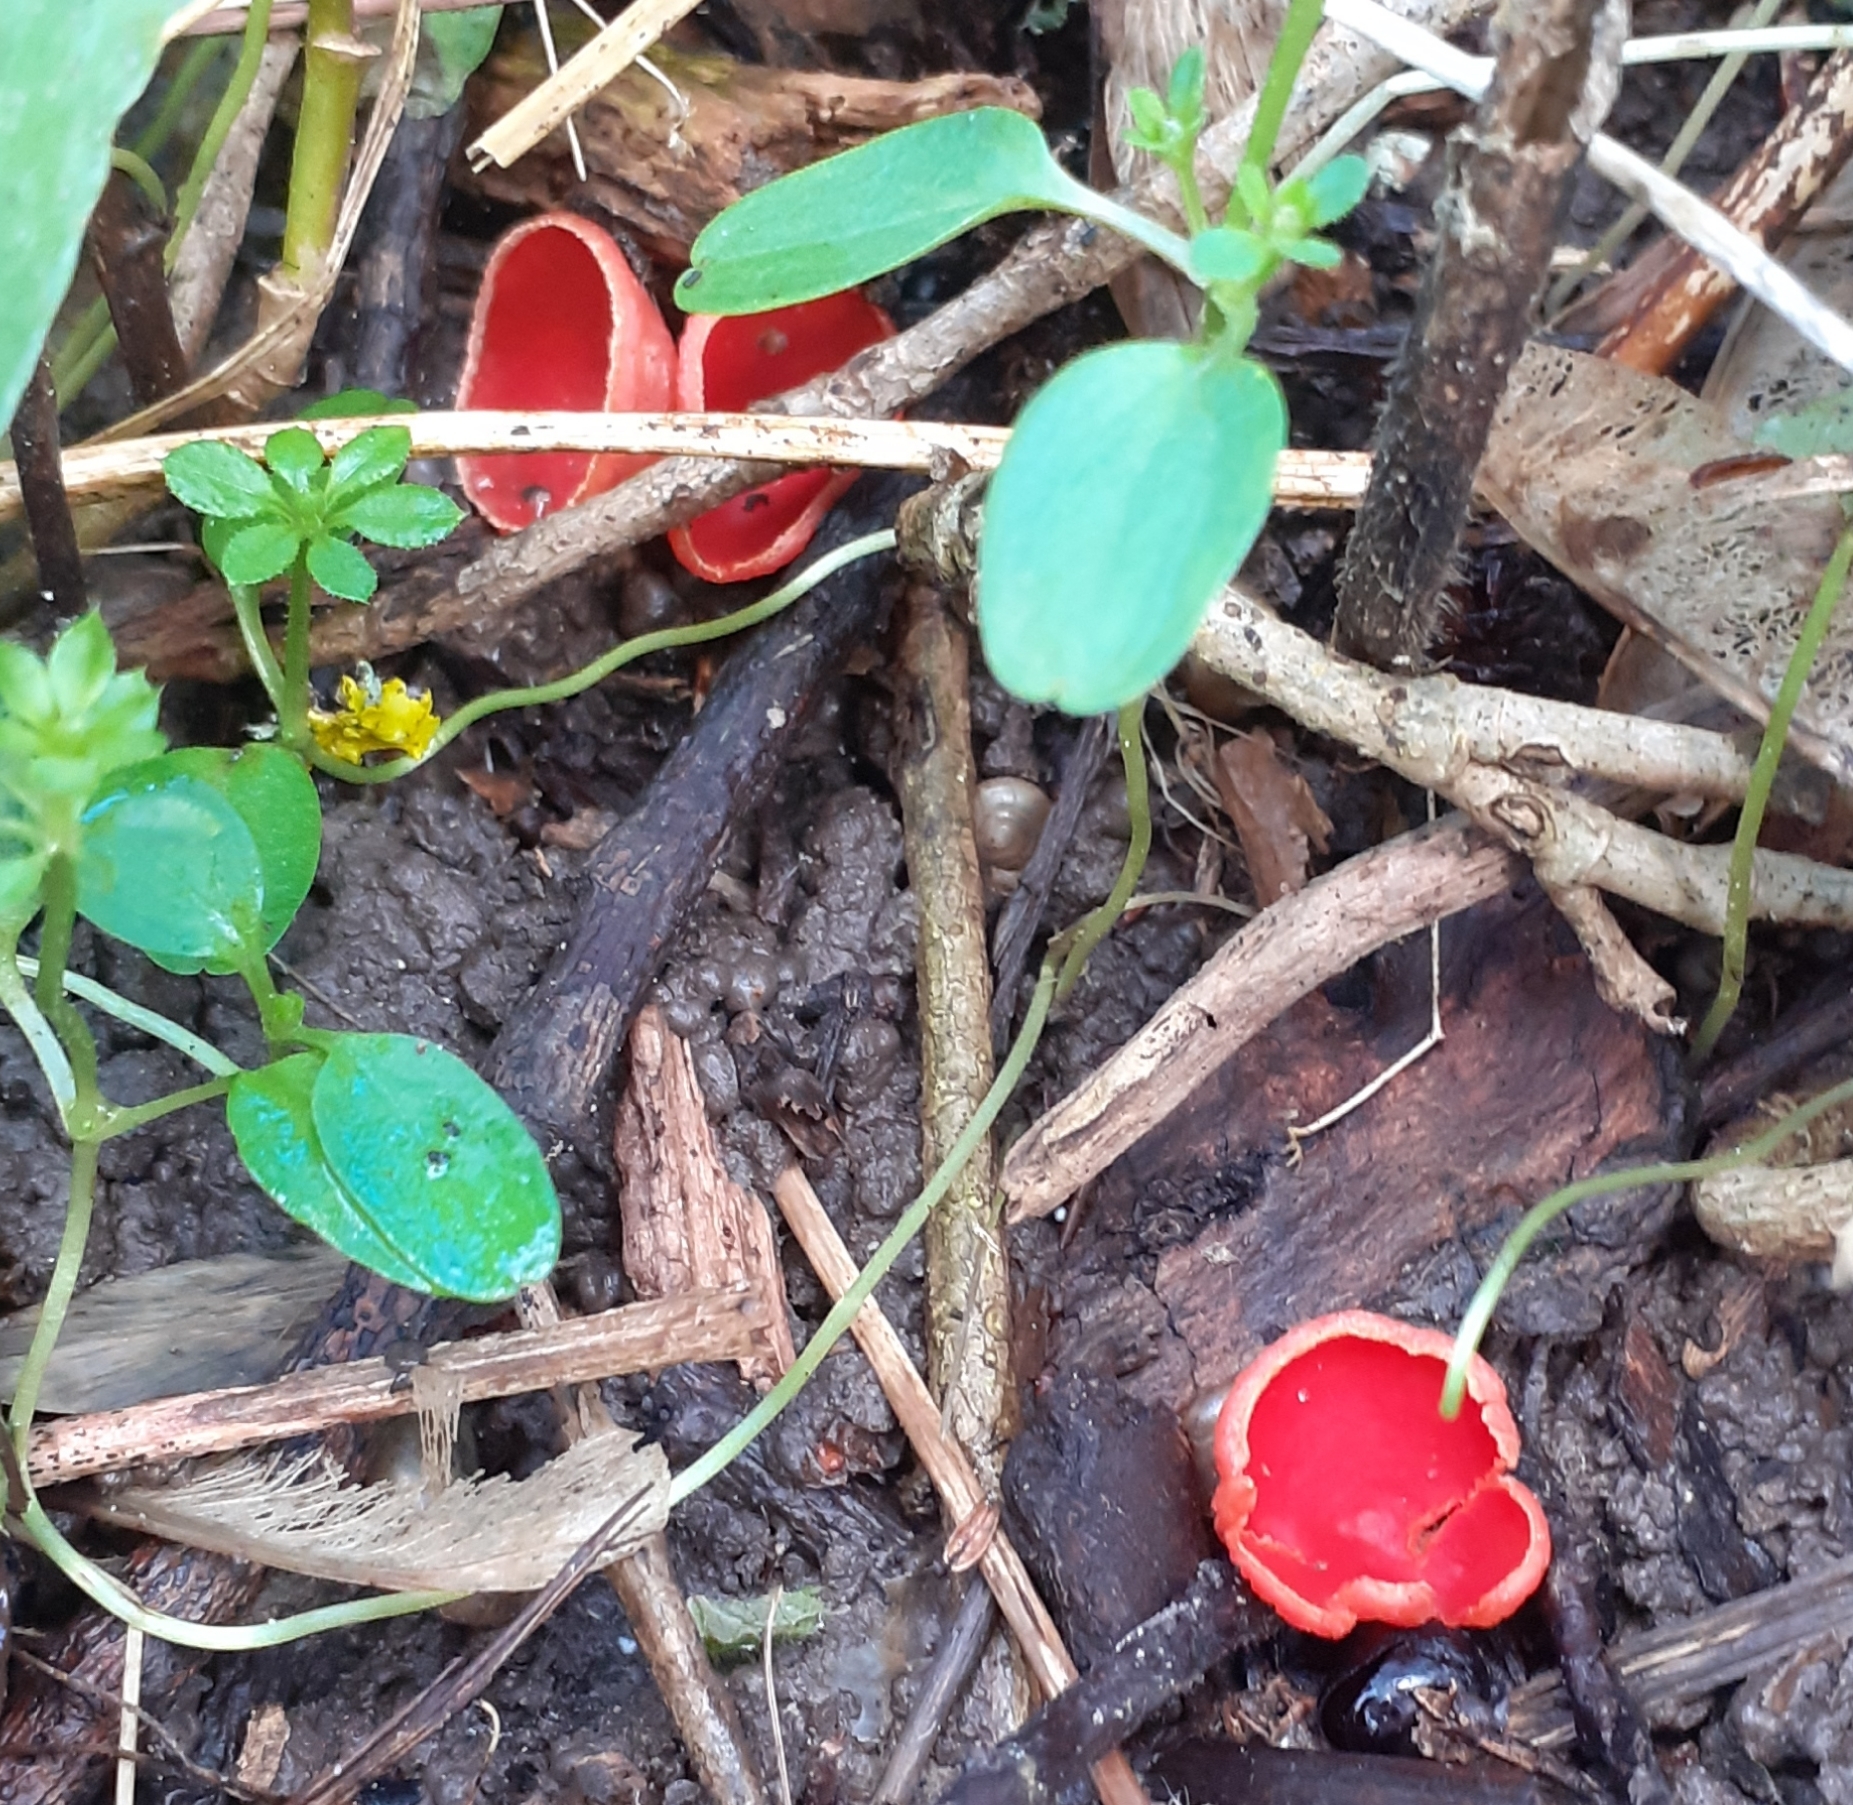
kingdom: Fungi
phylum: Ascomycota
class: Pezizomycetes
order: Pezizales
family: Sarcoscyphaceae
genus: Sarcoscypha
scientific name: Sarcoscypha
